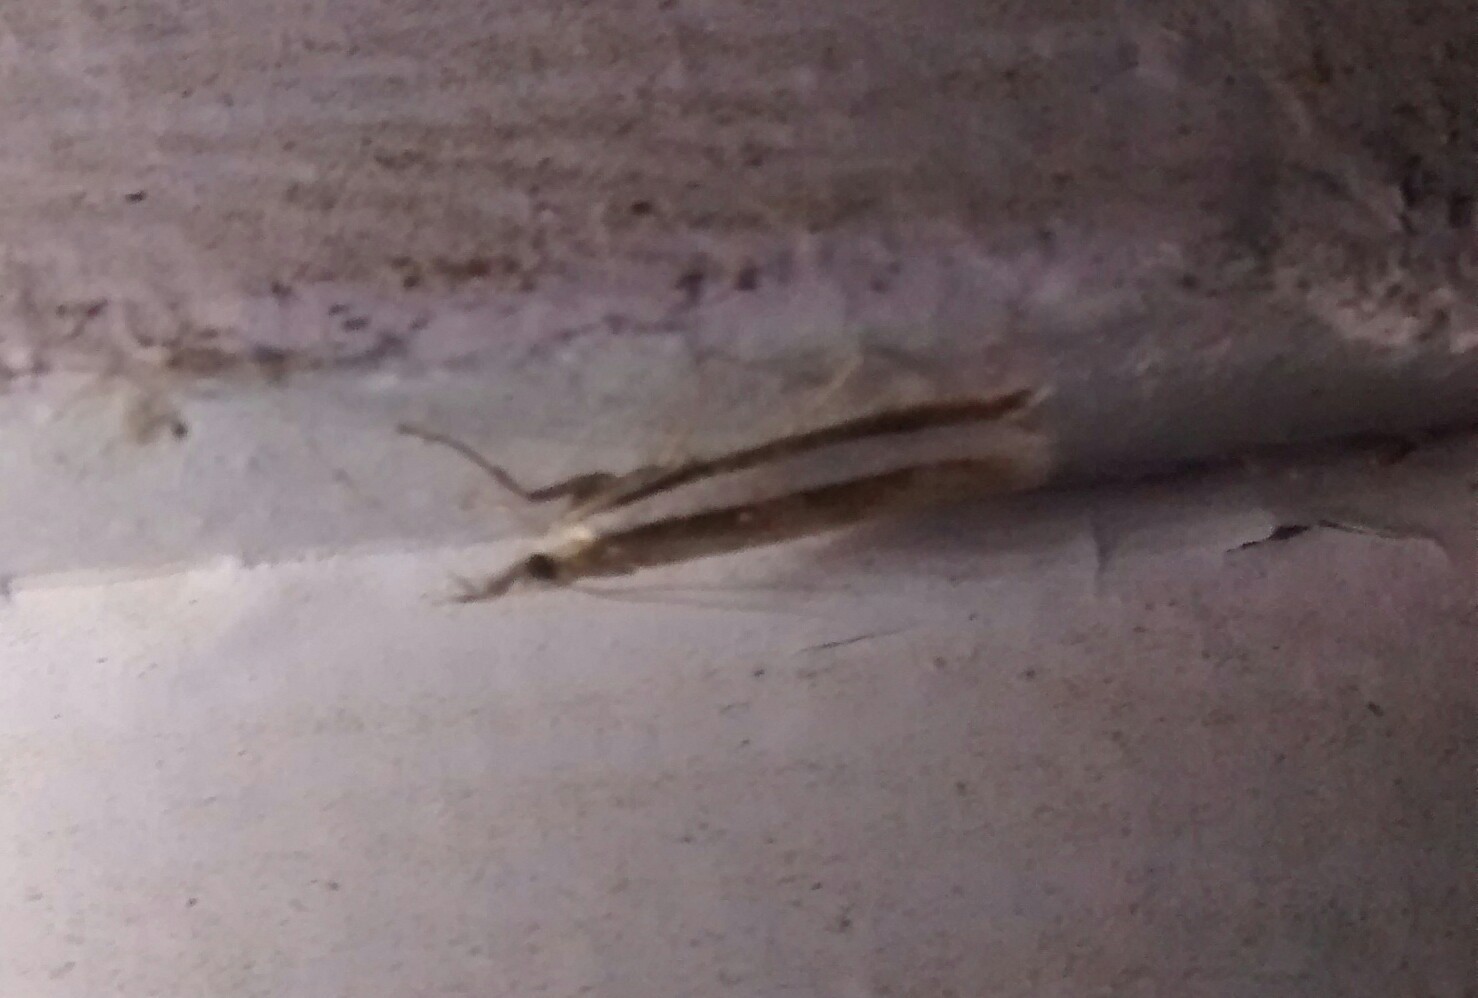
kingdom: Animalia
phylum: Arthropoda
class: Insecta
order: Lepidoptera
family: Crambidae
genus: Crambus
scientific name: Crambus unistriatellus
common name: Wide-stripe grass-veneer moth
